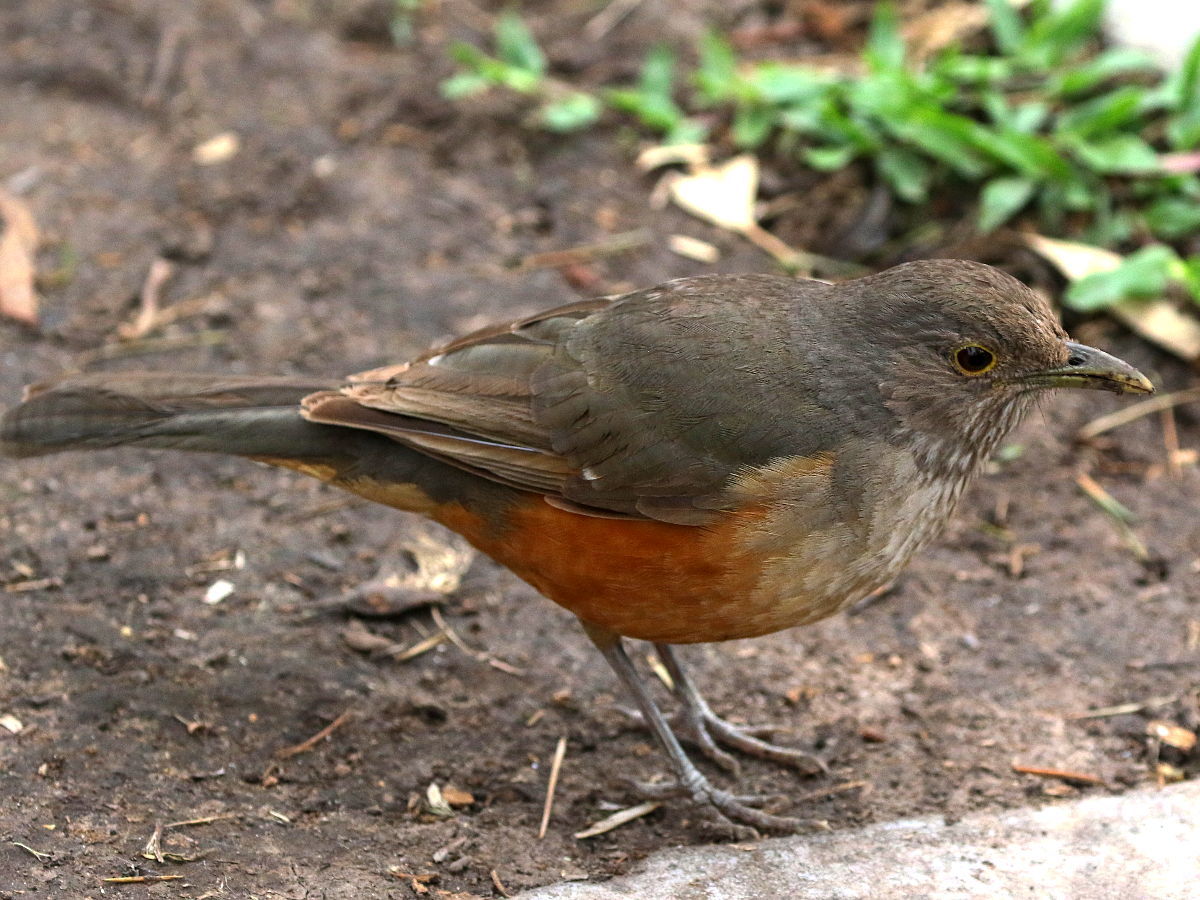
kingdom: Animalia
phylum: Chordata
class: Aves
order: Passeriformes
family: Turdidae
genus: Turdus
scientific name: Turdus rufiventris
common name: Rufous-bellied thrush
